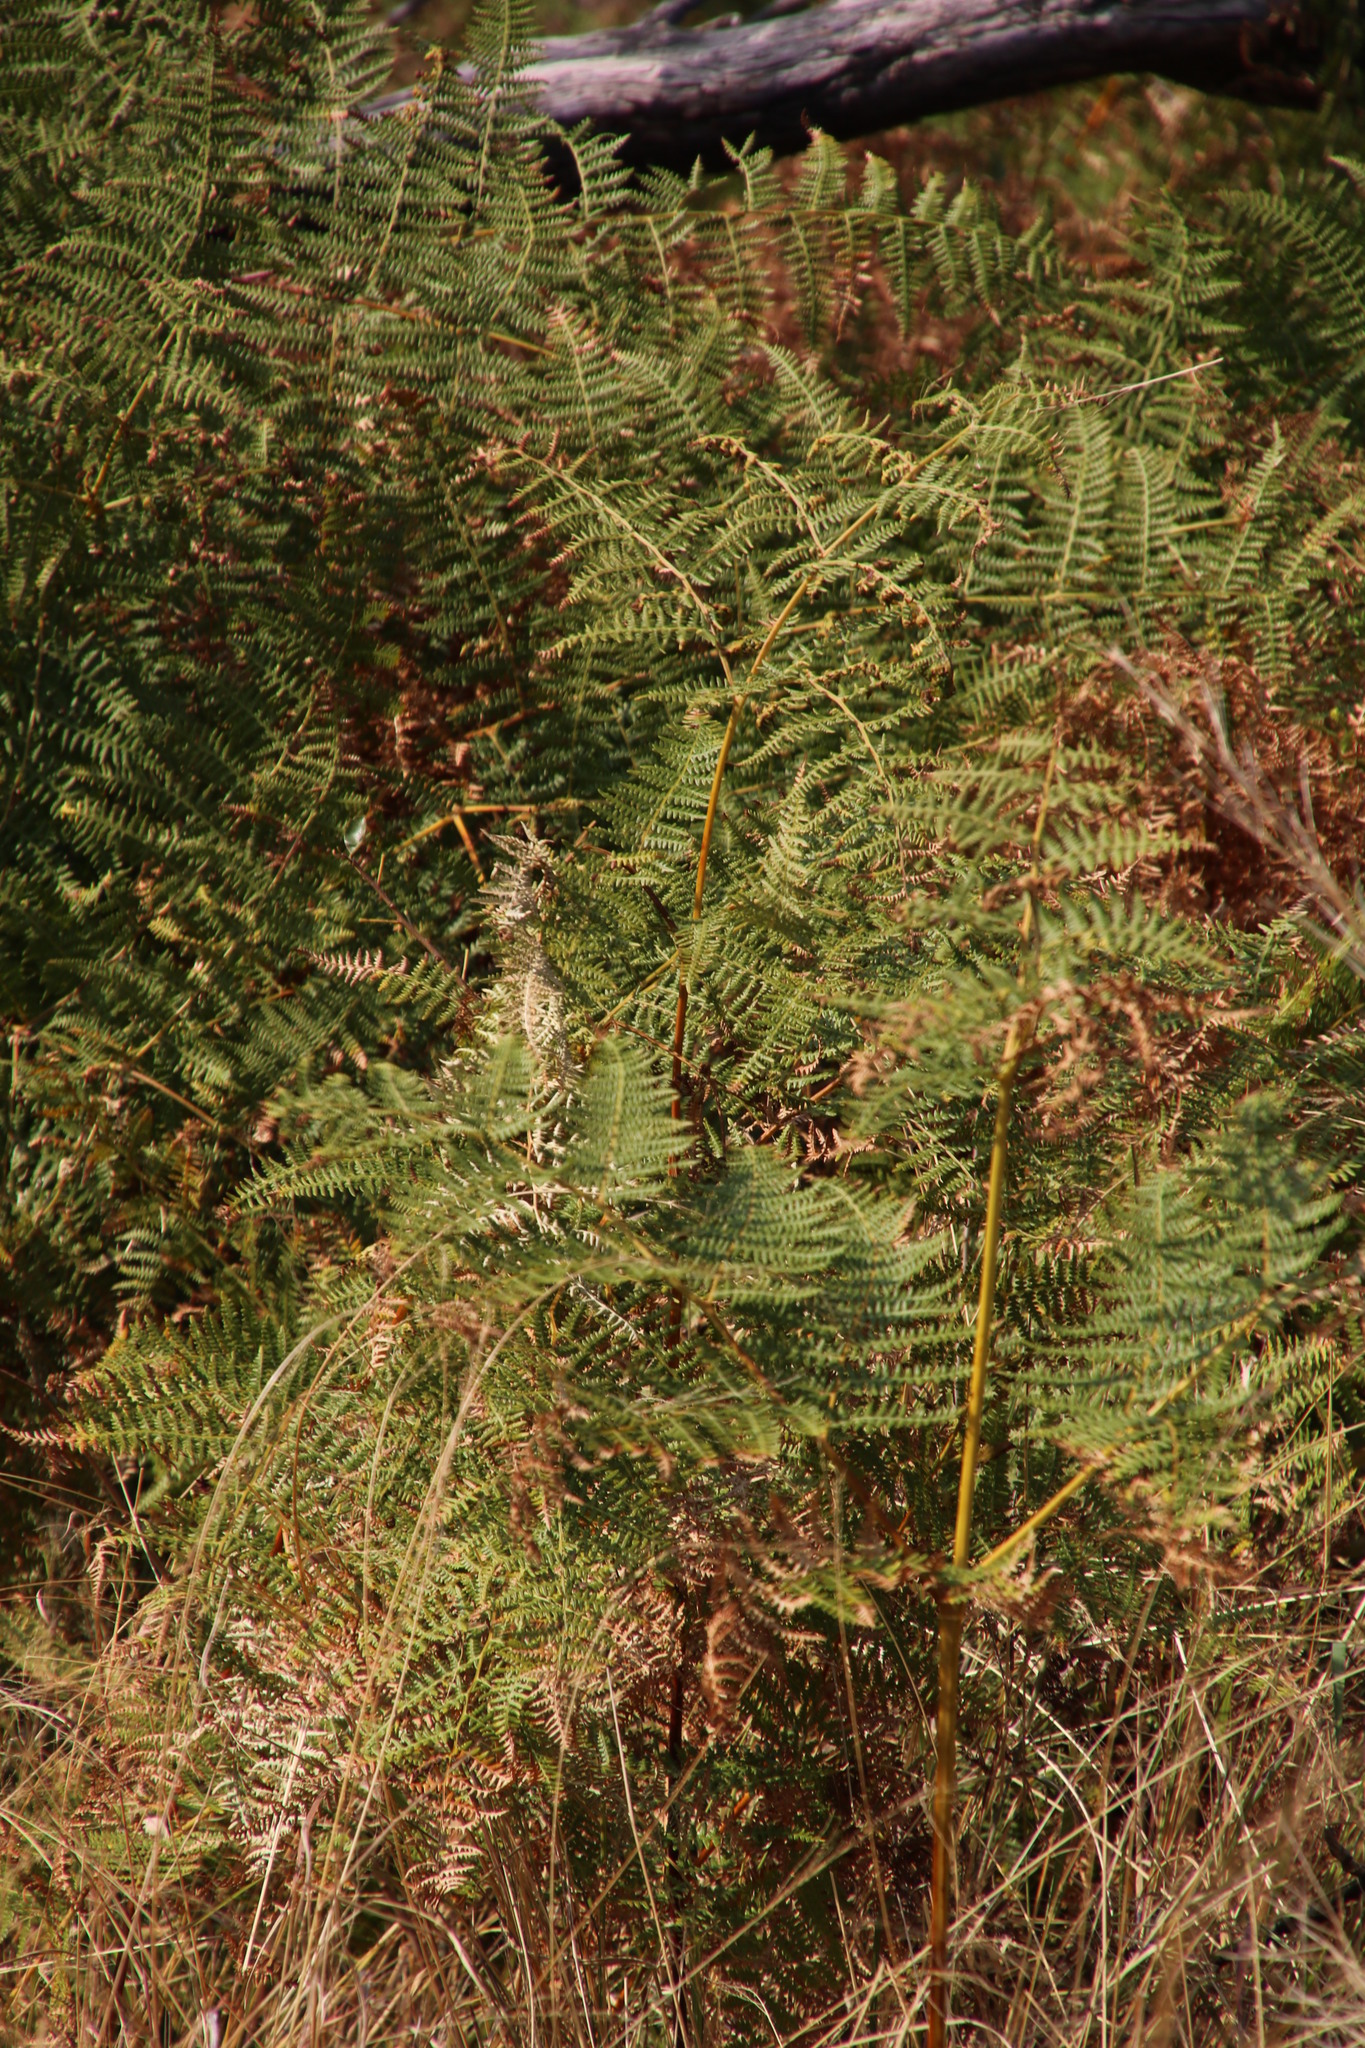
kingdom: Plantae
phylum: Tracheophyta
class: Polypodiopsida
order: Polypodiales
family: Dennstaedtiaceae
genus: Pteridium
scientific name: Pteridium aquilinum
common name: Bracken
